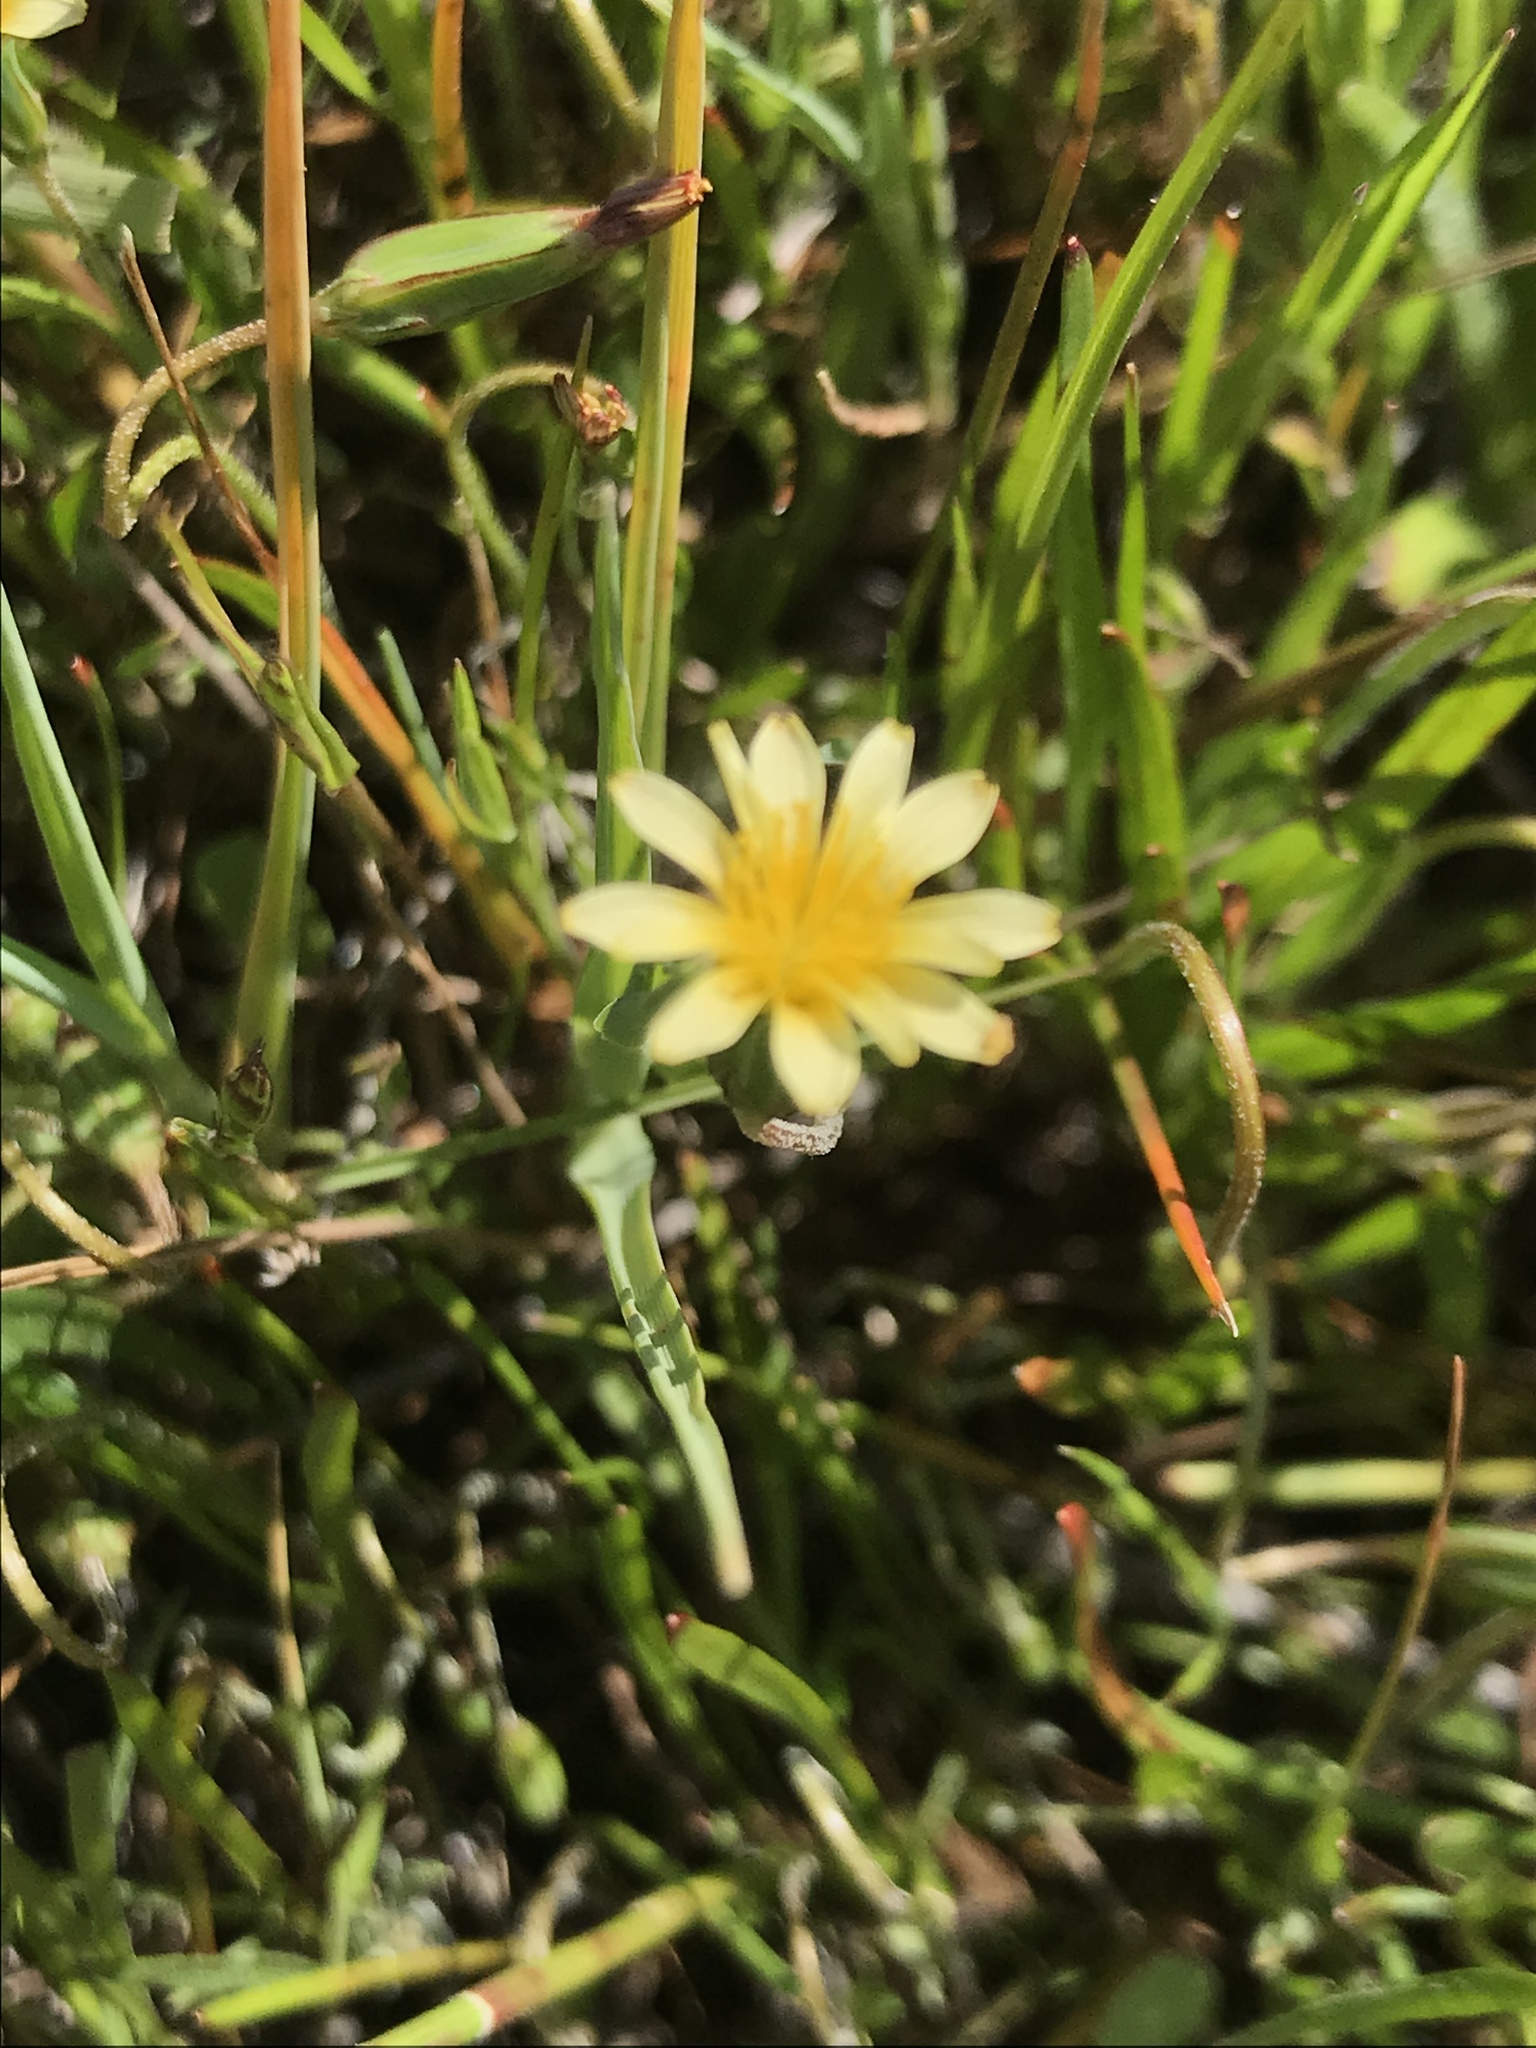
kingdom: Plantae
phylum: Tracheophyta
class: Magnoliopsida
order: Asterales
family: Asteraceae
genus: Microseris
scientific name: Microseris douglasii
